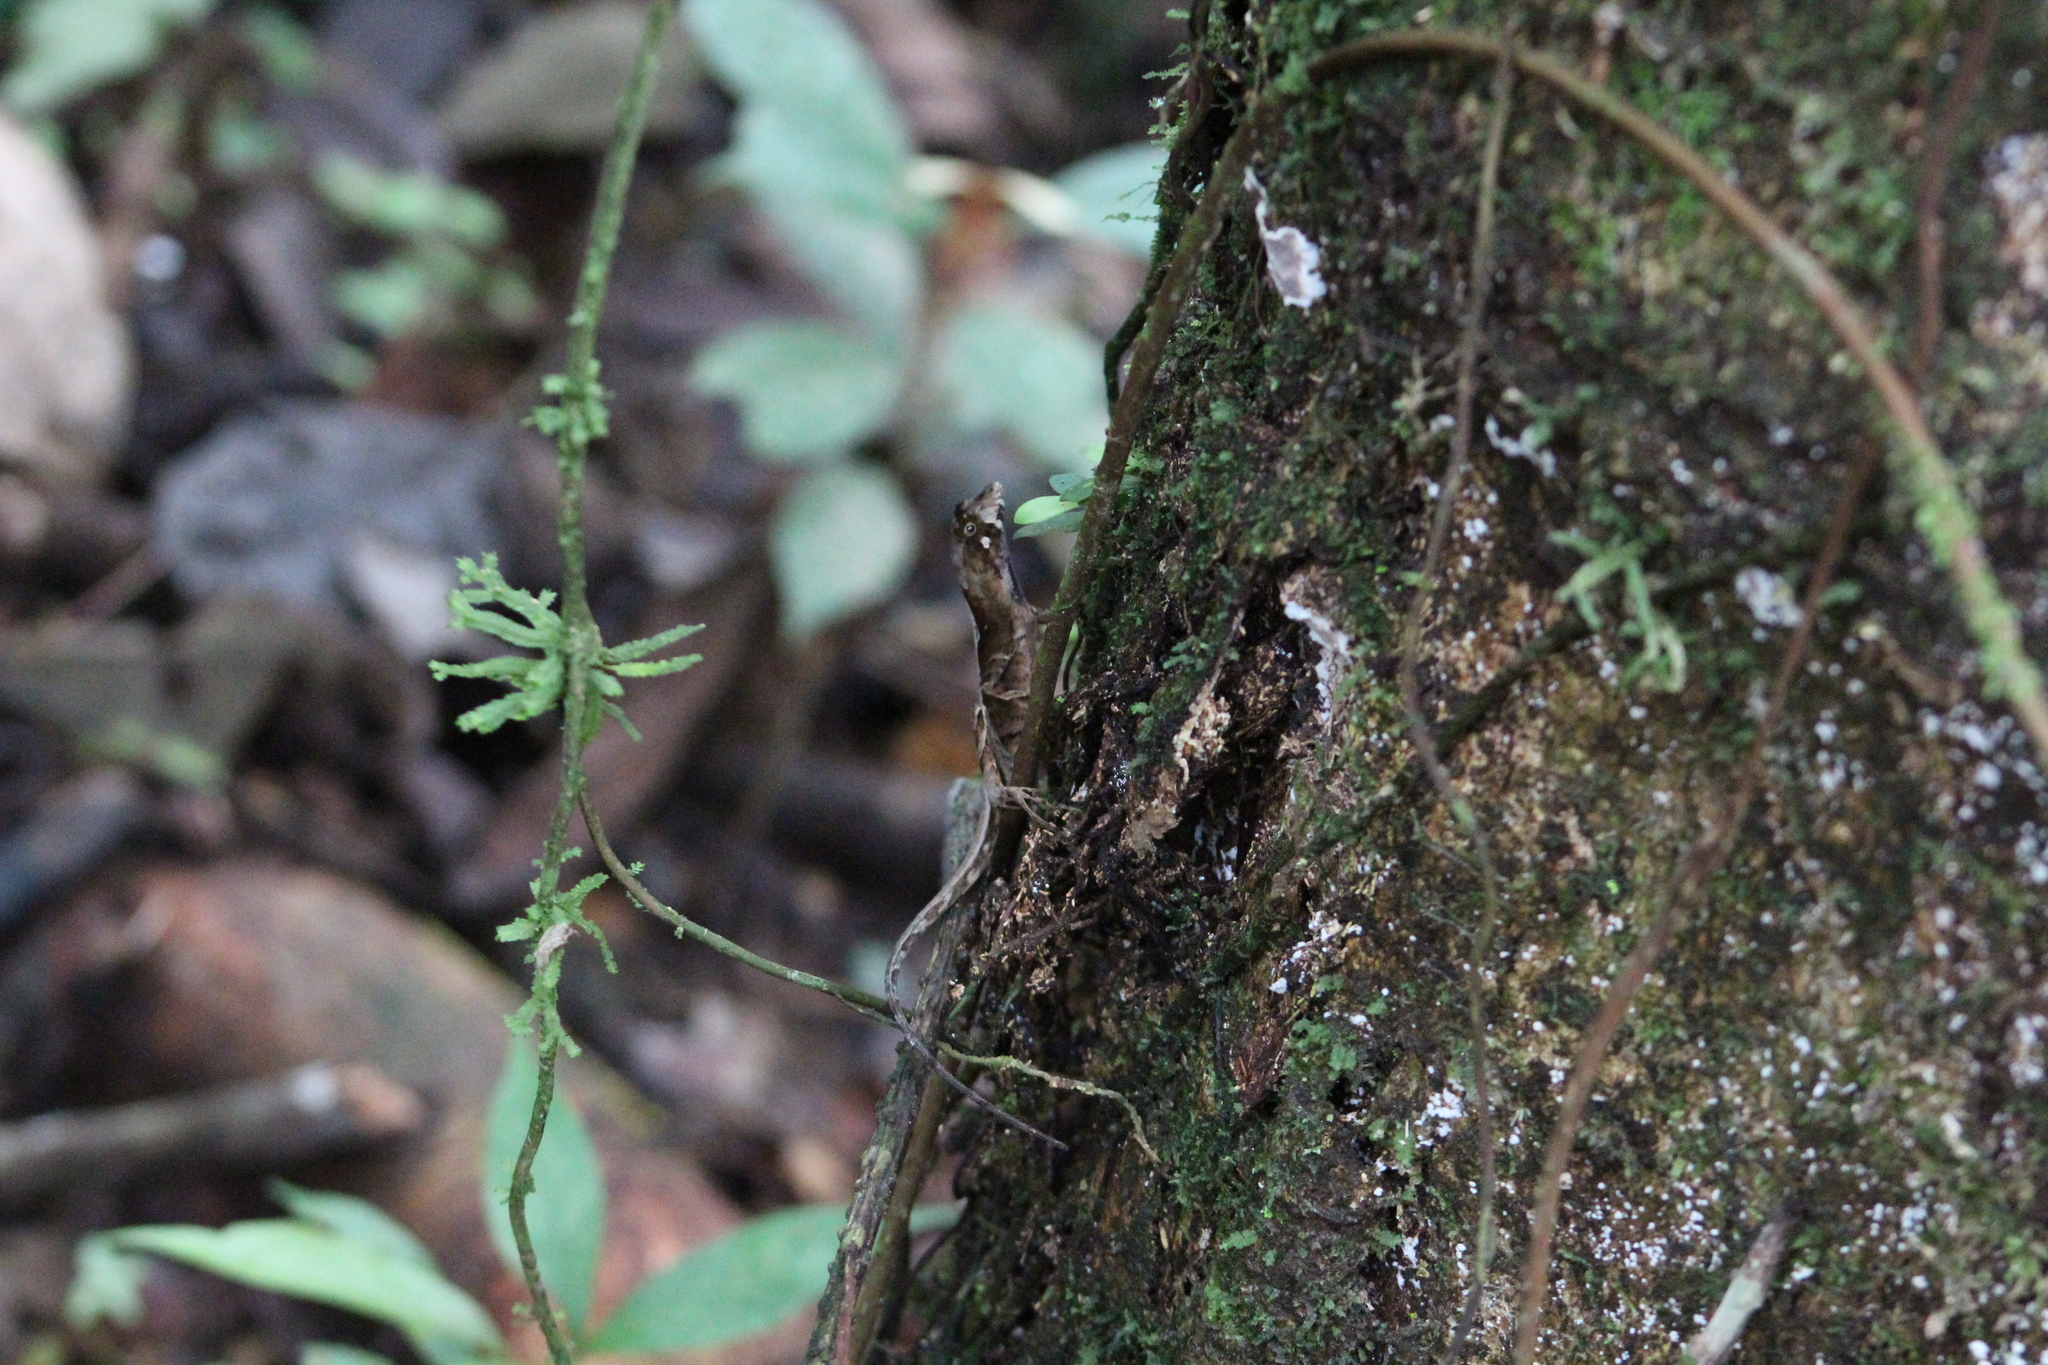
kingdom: Animalia
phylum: Chordata
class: Squamata
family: Dactyloidae
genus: Anolis
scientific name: Anolis scypheus
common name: Yellow-tongued anole
